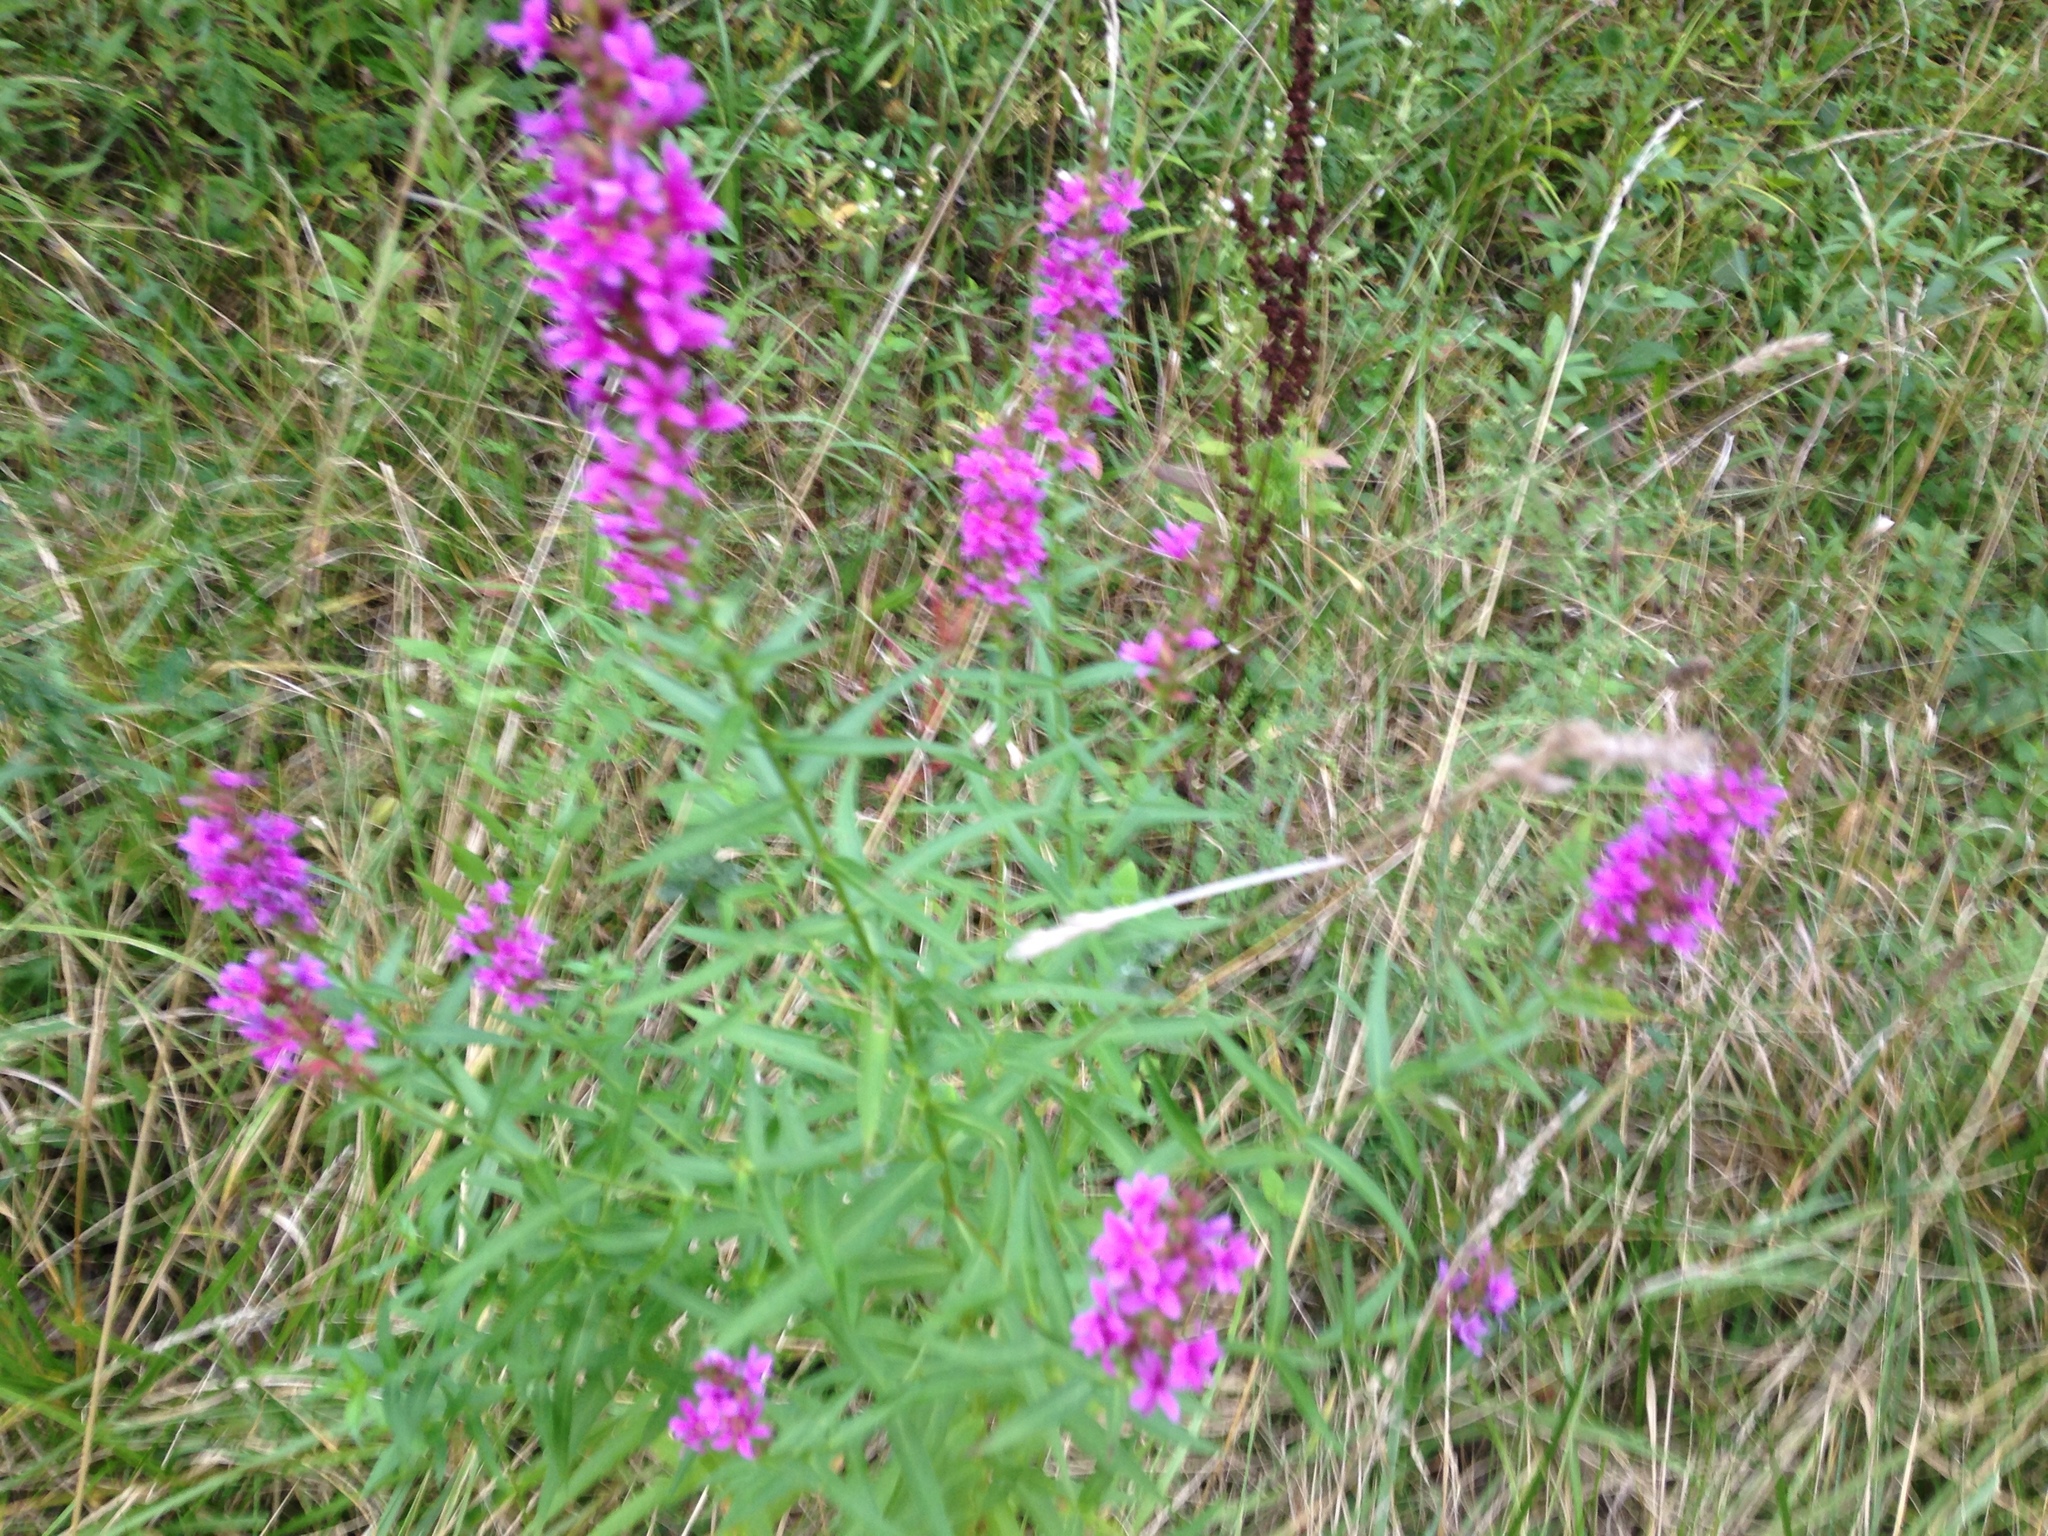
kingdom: Plantae
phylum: Tracheophyta
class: Magnoliopsida
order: Myrtales
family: Lythraceae
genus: Lythrum
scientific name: Lythrum salicaria
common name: Purple loosestrife
